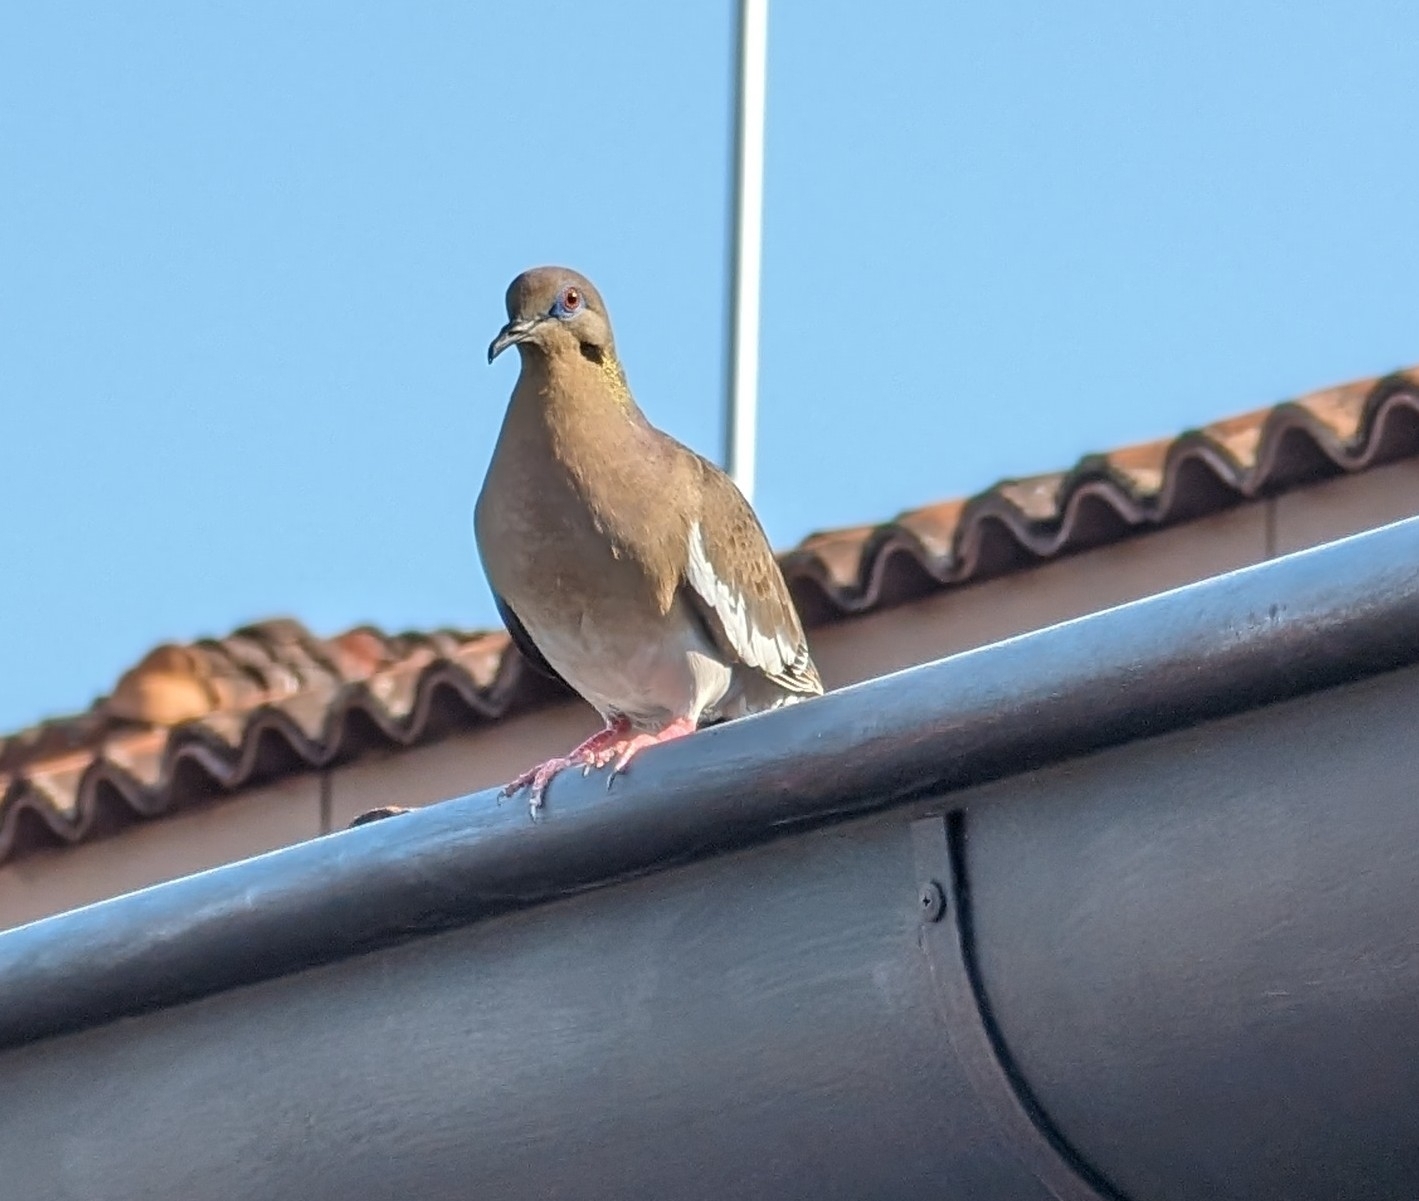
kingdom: Animalia
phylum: Chordata
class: Aves
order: Columbiformes
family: Columbidae
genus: Zenaida
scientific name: Zenaida asiatica
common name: White-winged dove
